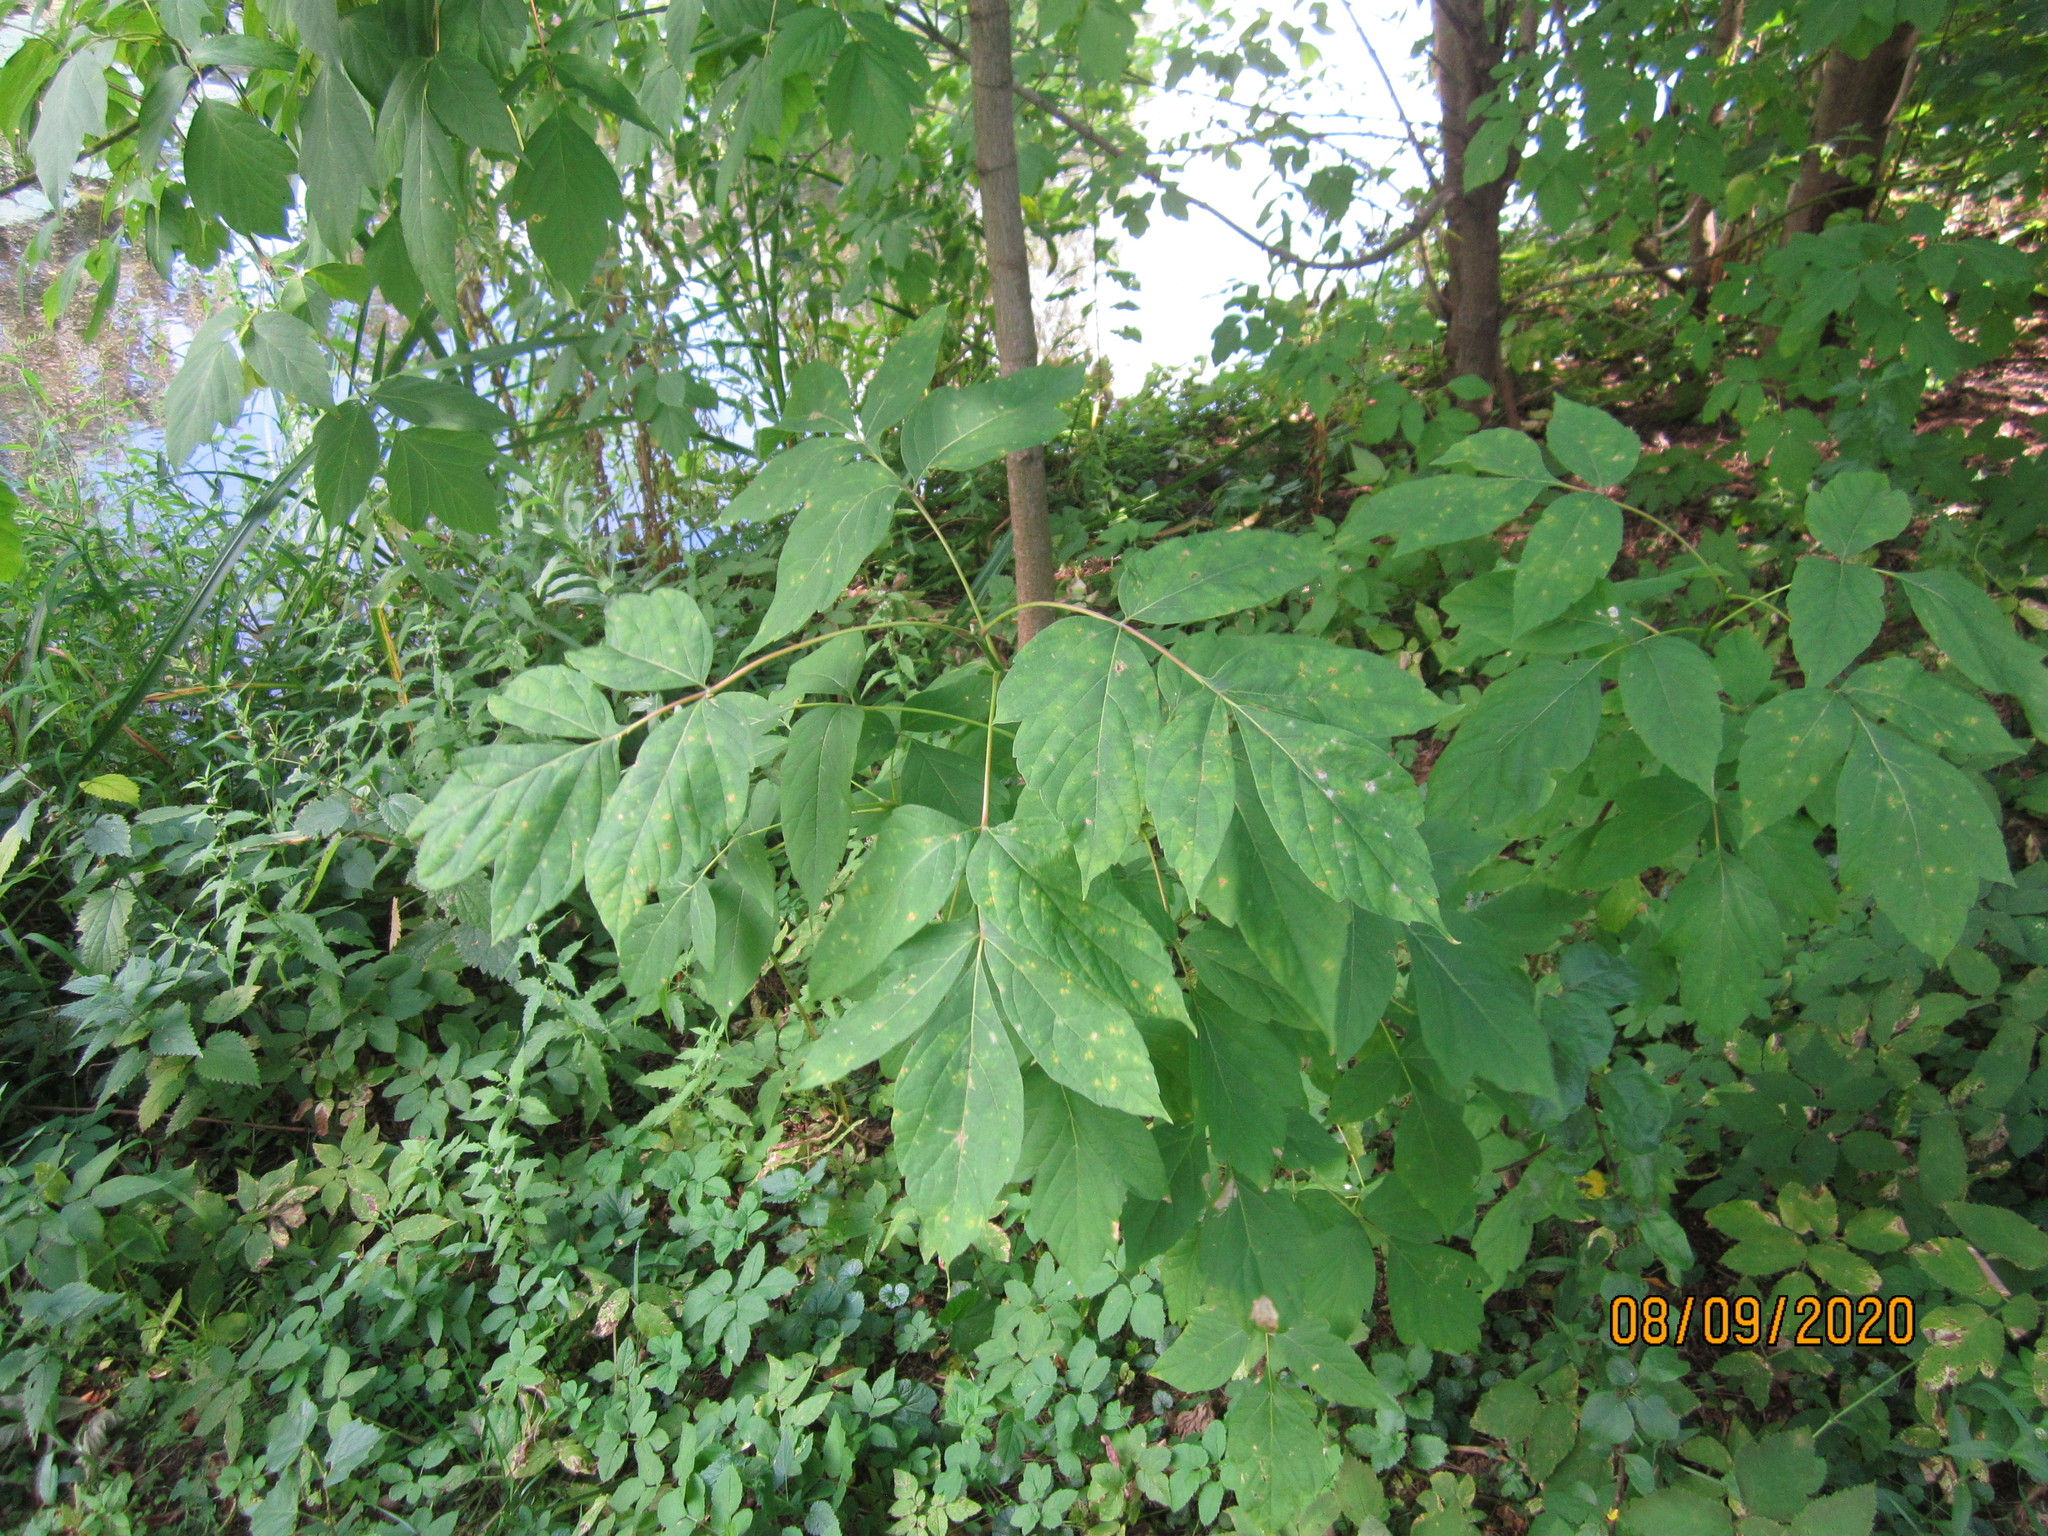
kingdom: Plantae
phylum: Tracheophyta
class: Magnoliopsida
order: Sapindales
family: Sapindaceae
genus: Acer
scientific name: Acer negundo
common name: Ashleaf maple
